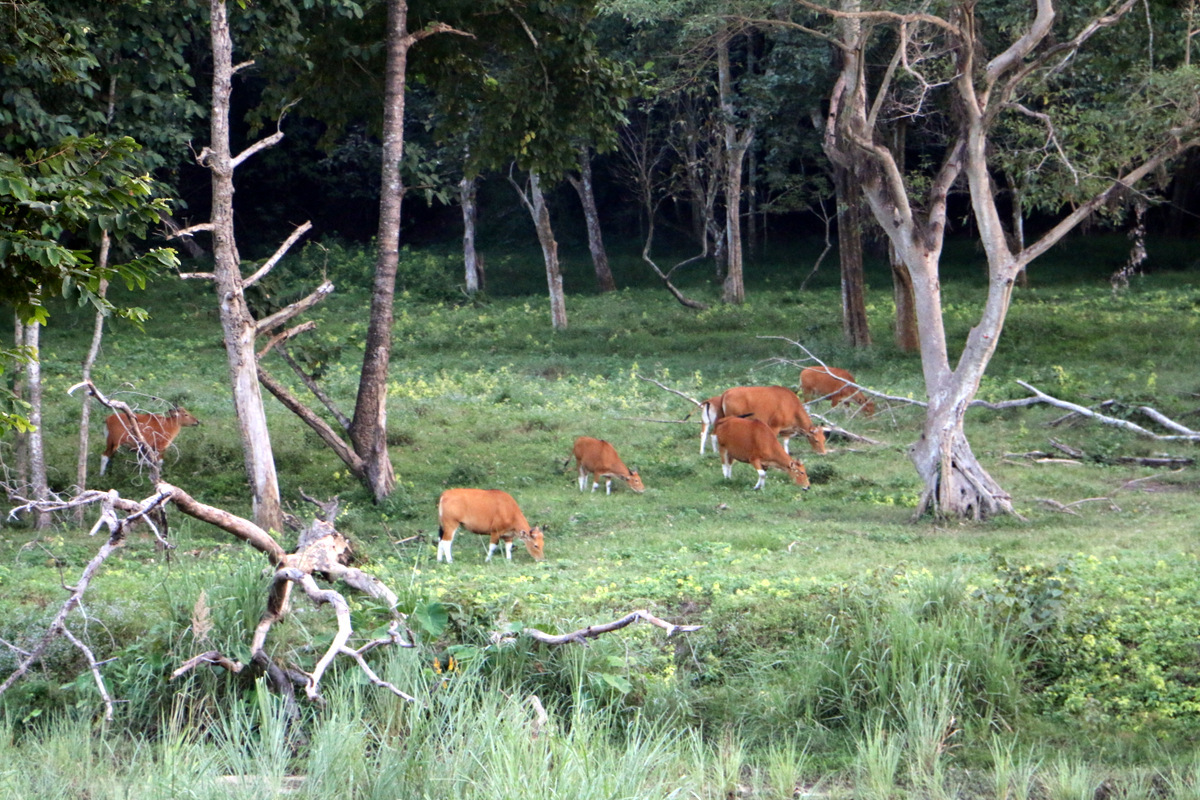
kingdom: Animalia
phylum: Chordata
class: Mammalia
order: Artiodactyla
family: Bovidae
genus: Bos
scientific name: Bos javanicus
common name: Banteng
